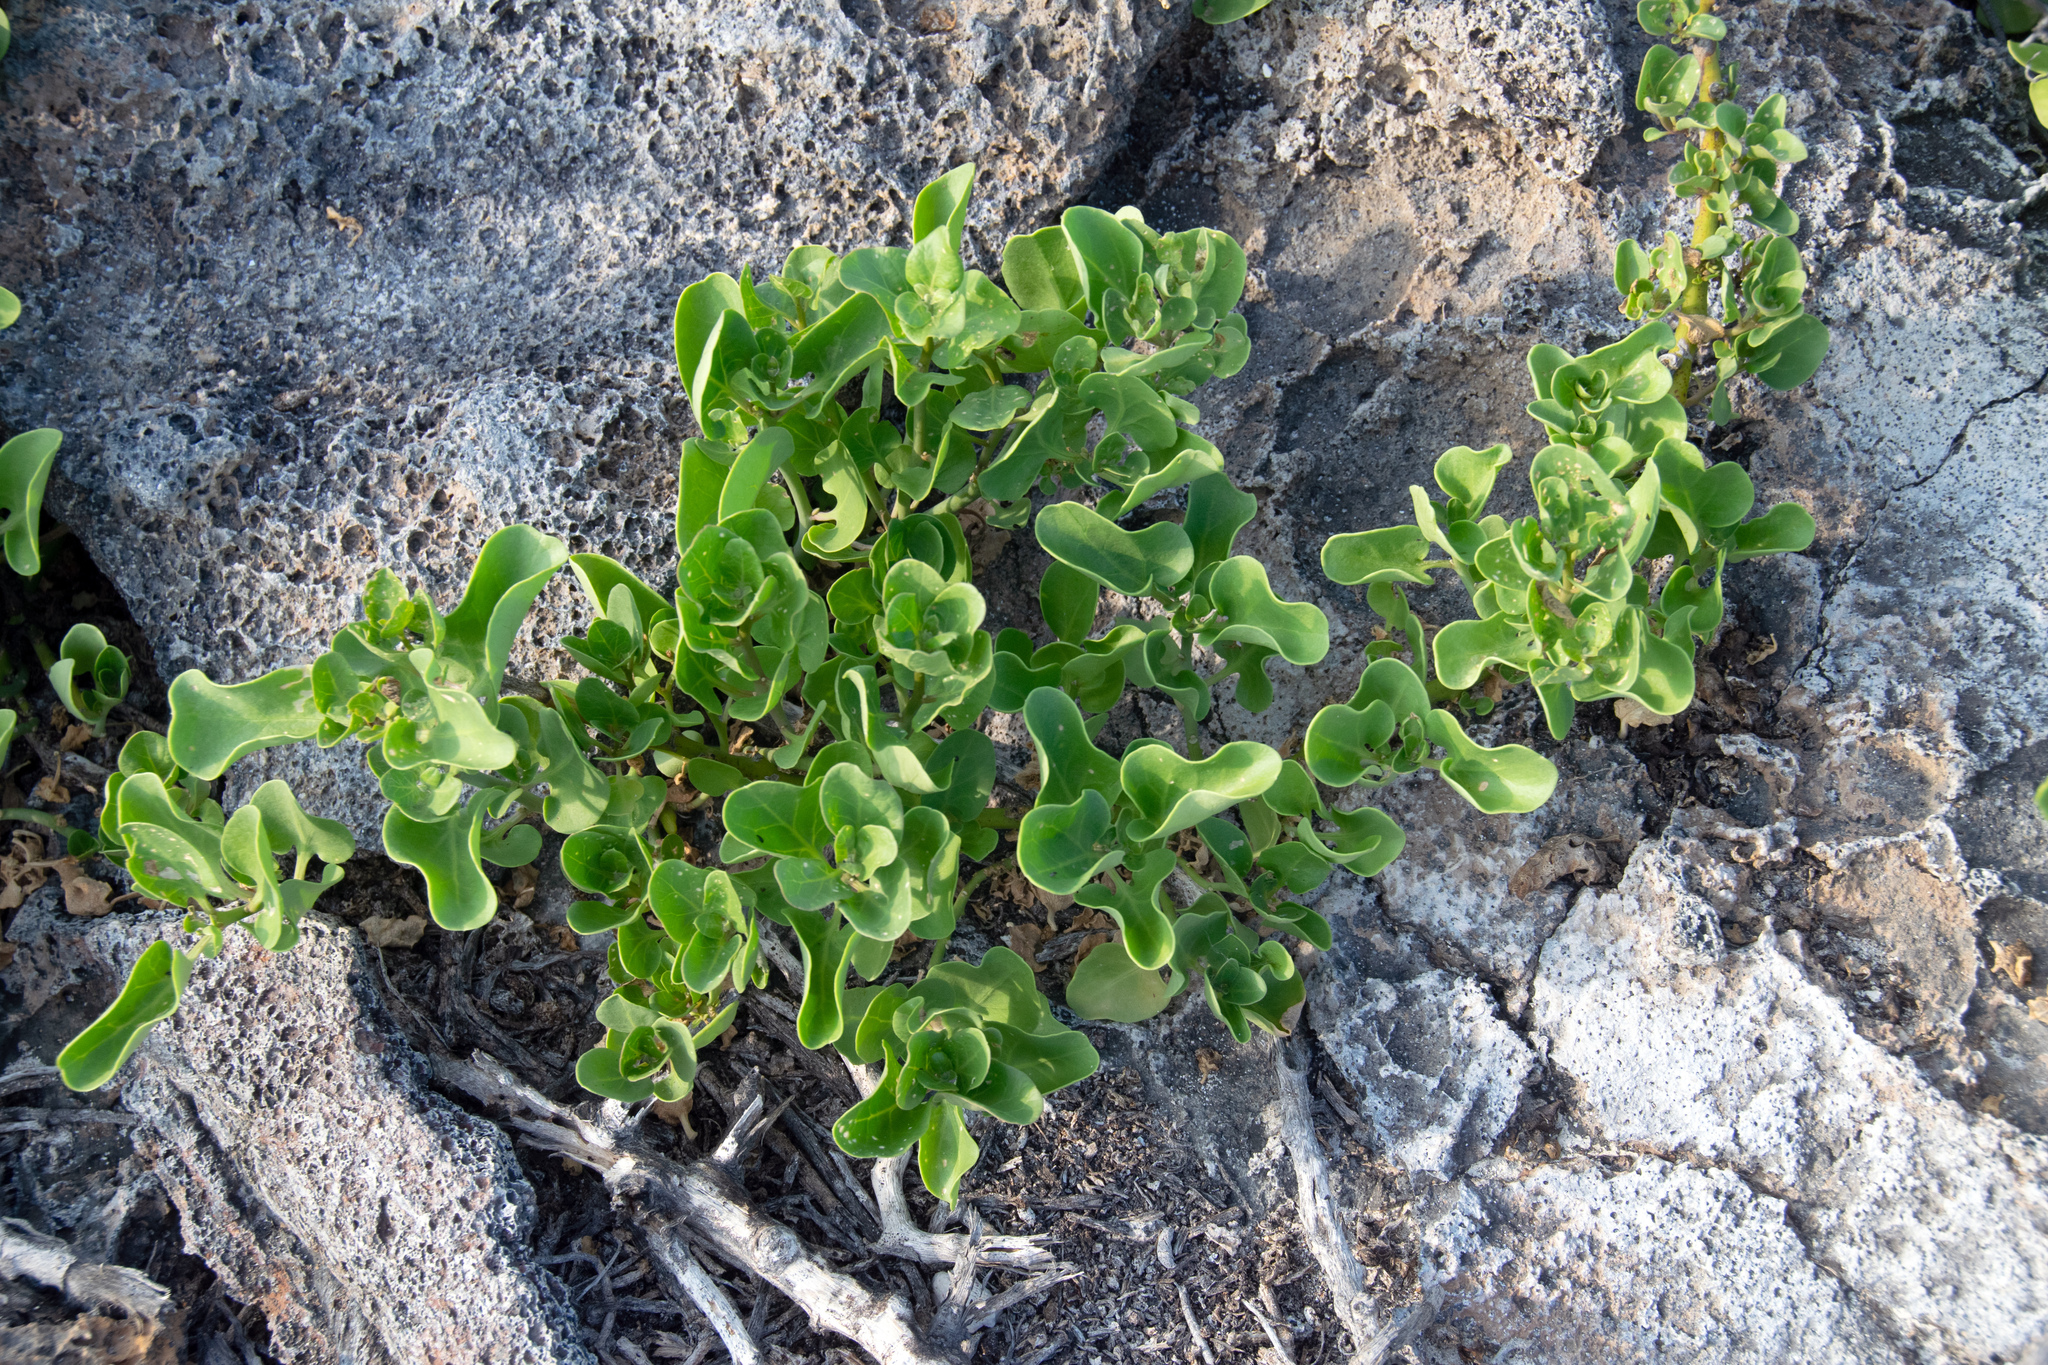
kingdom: Plantae
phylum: Tracheophyta
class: Magnoliopsida
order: Caryophyllales
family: Nyctaginaceae
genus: Cryptocarpus
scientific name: Cryptocarpus pyriformis
